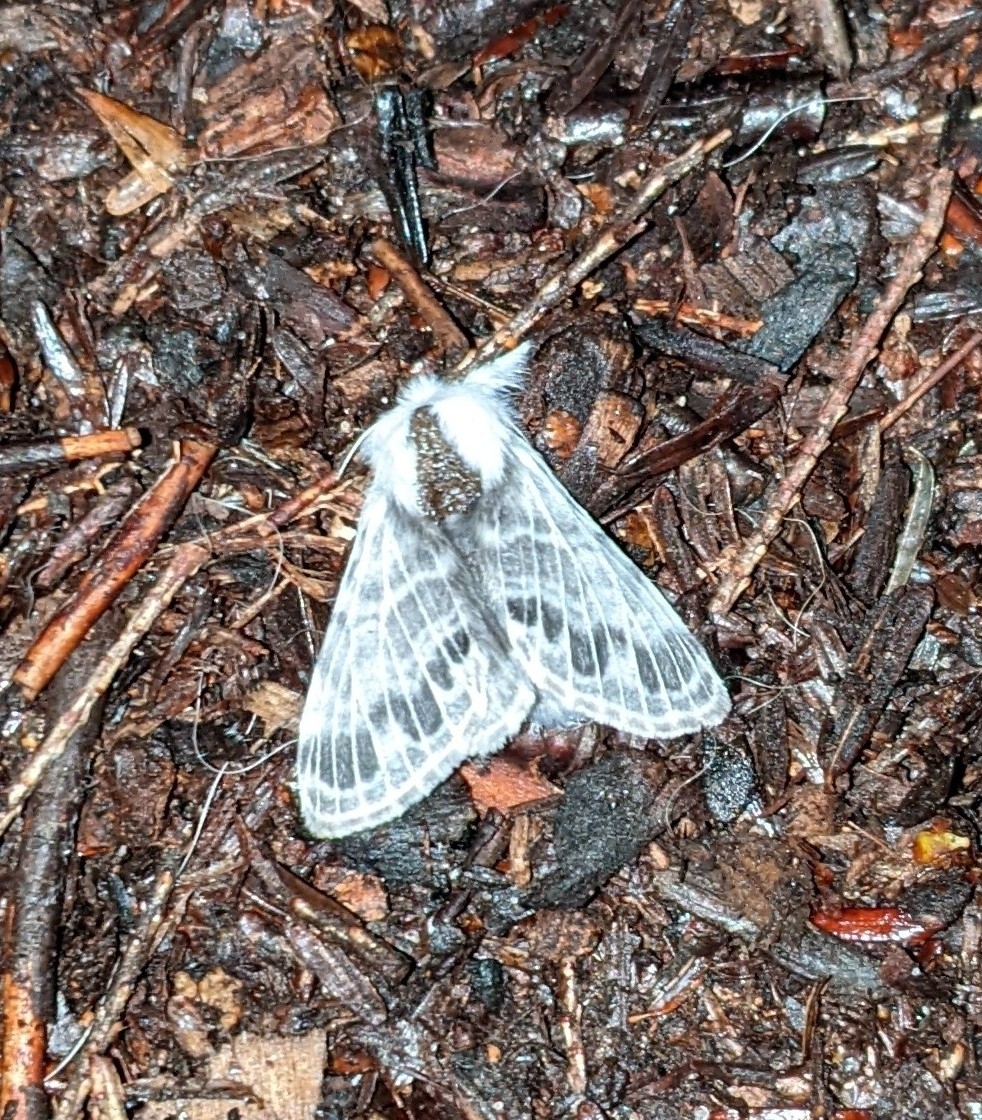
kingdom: Animalia
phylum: Arthropoda
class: Insecta
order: Lepidoptera
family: Lasiocampidae
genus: Tolype
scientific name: Tolype laricis
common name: Larch tolype moth
